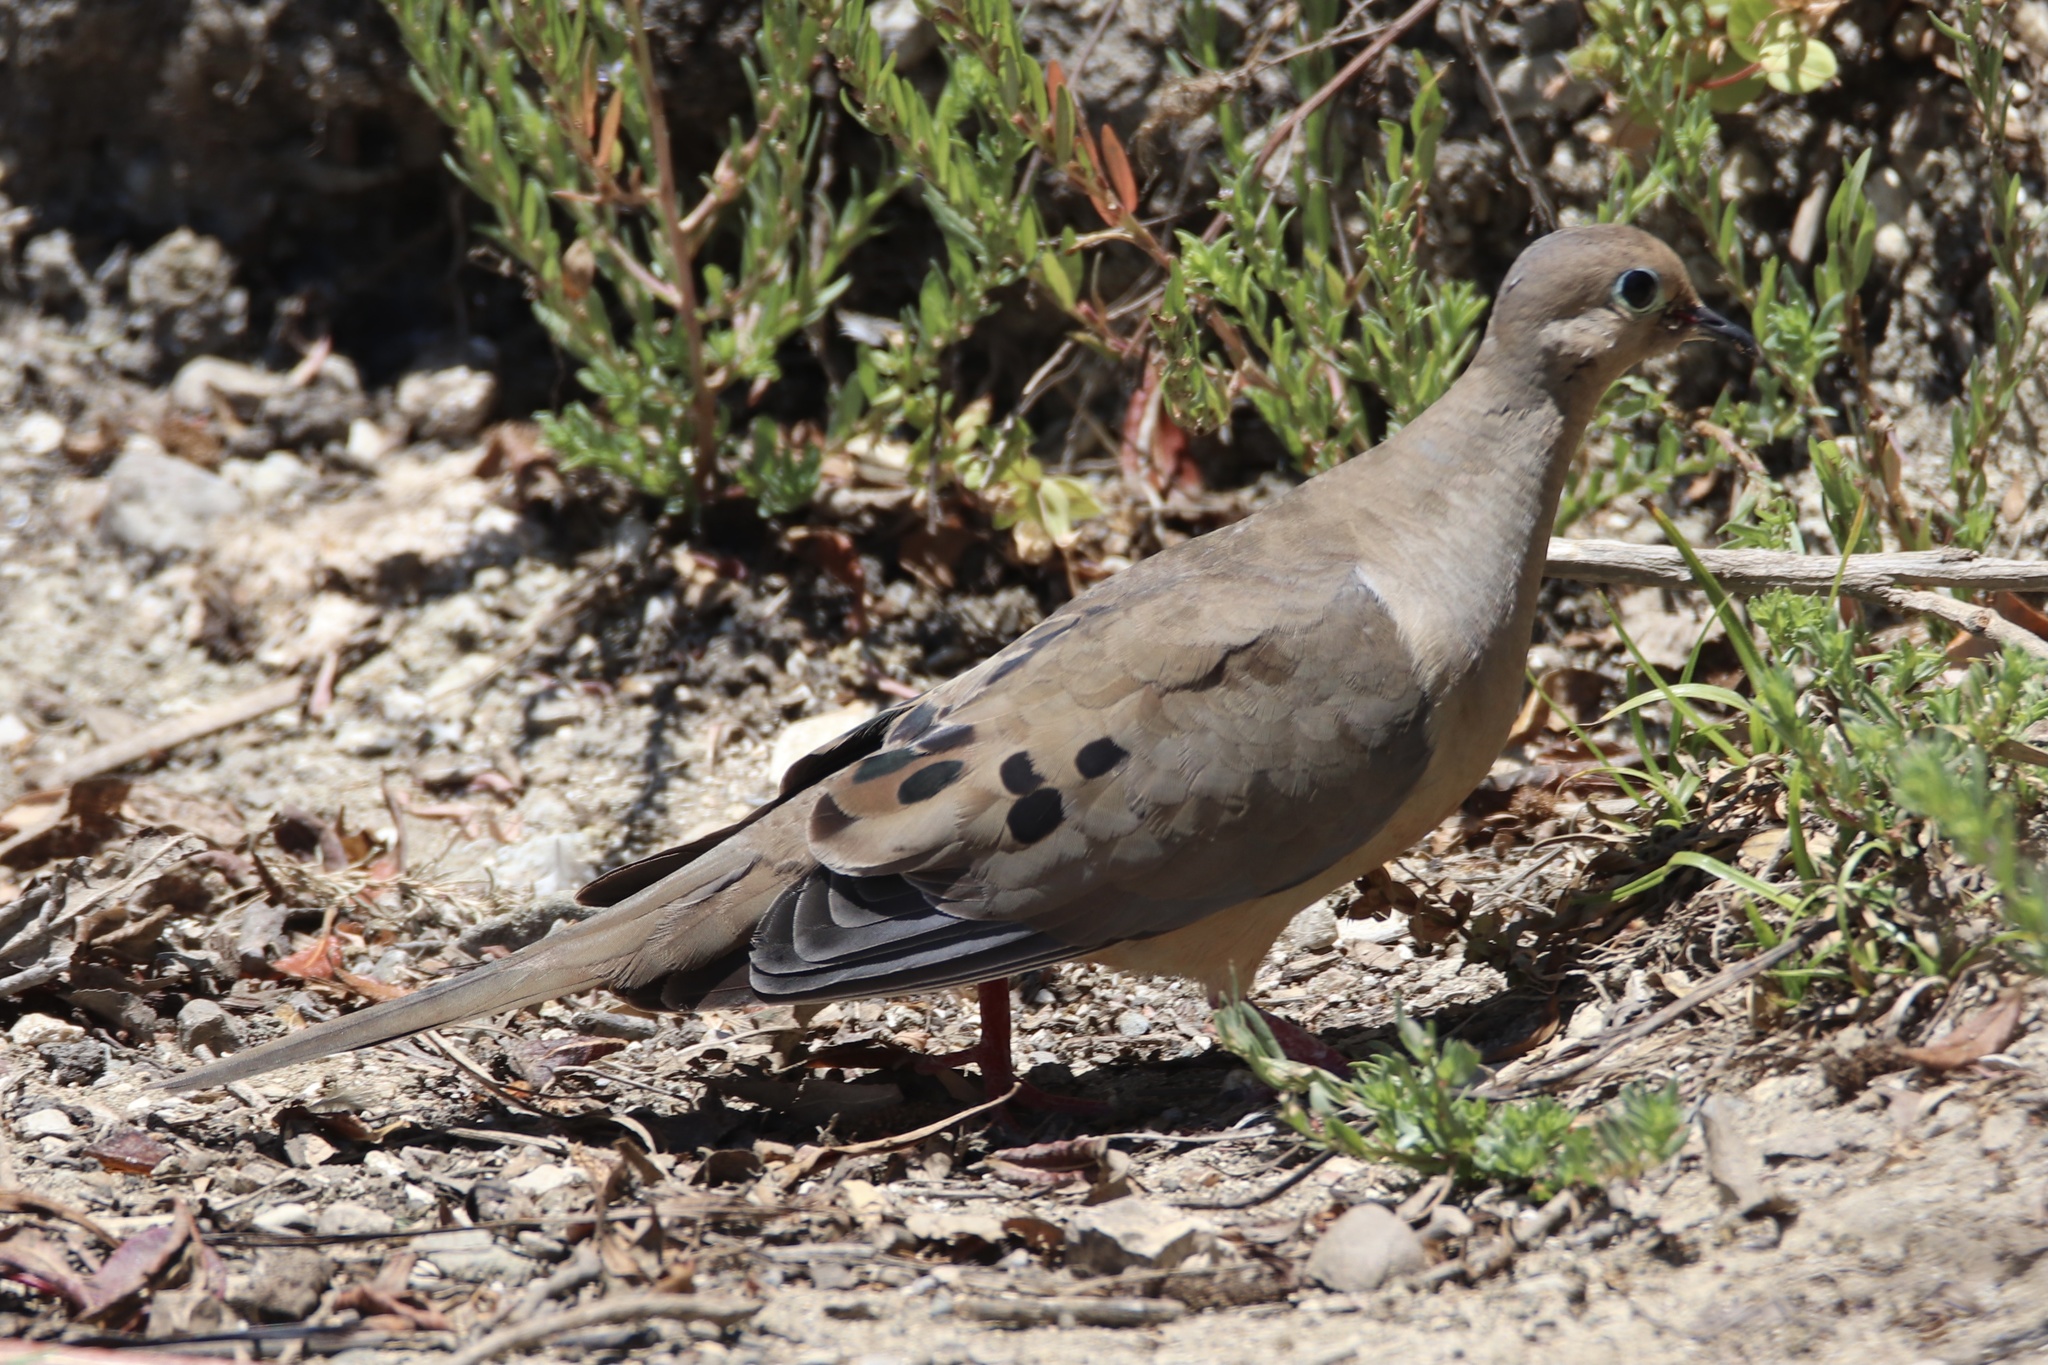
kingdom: Animalia
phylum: Chordata
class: Aves
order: Columbiformes
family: Columbidae
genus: Zenaida
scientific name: Zenaida macroura
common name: Mourning dove
